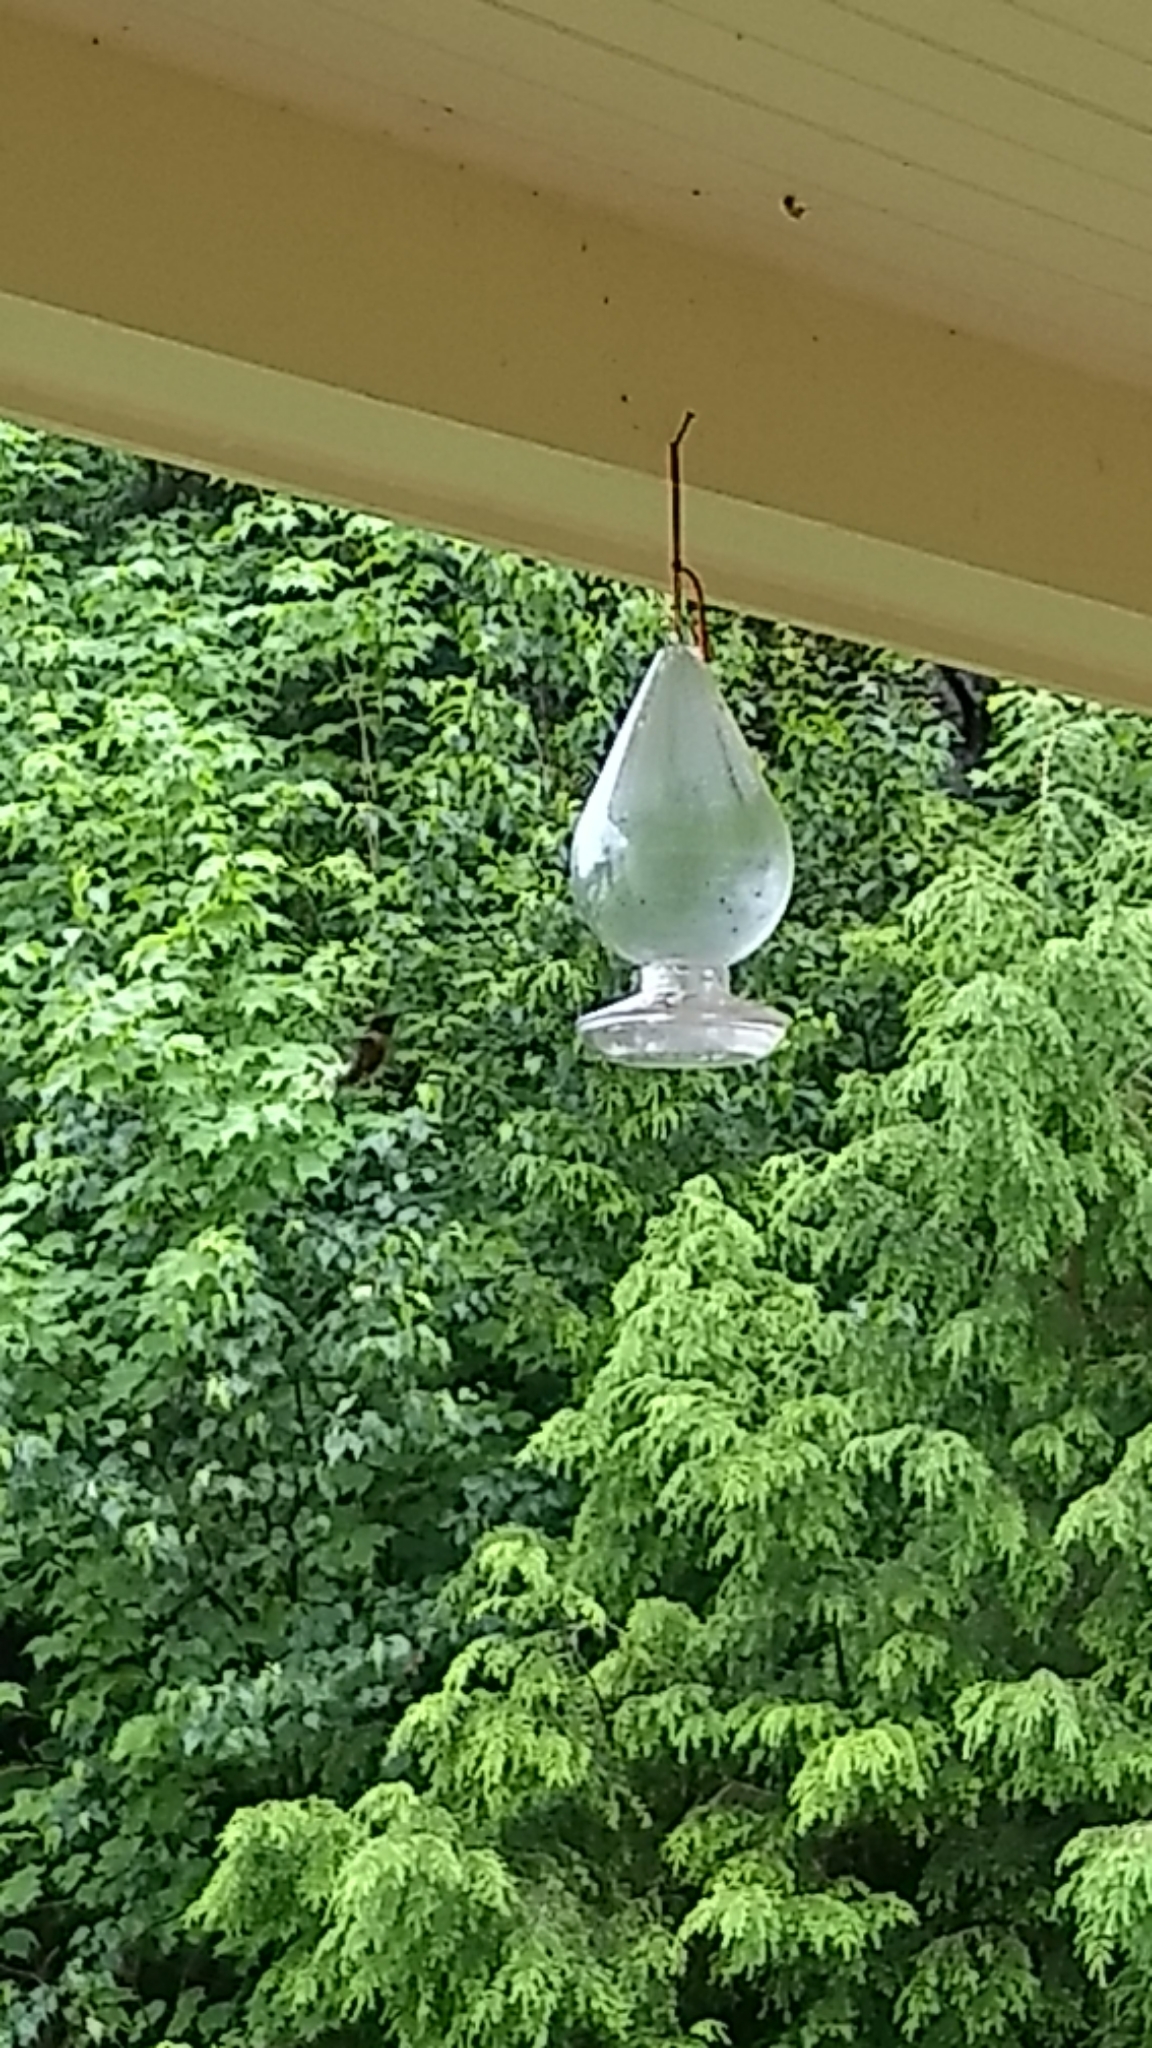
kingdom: Animalia
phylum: Chordata
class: Aves
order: Apodiformes
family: Trochilidae
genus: Archilochus
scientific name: Archilochus colubris
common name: Ruby-throated hummingbird
